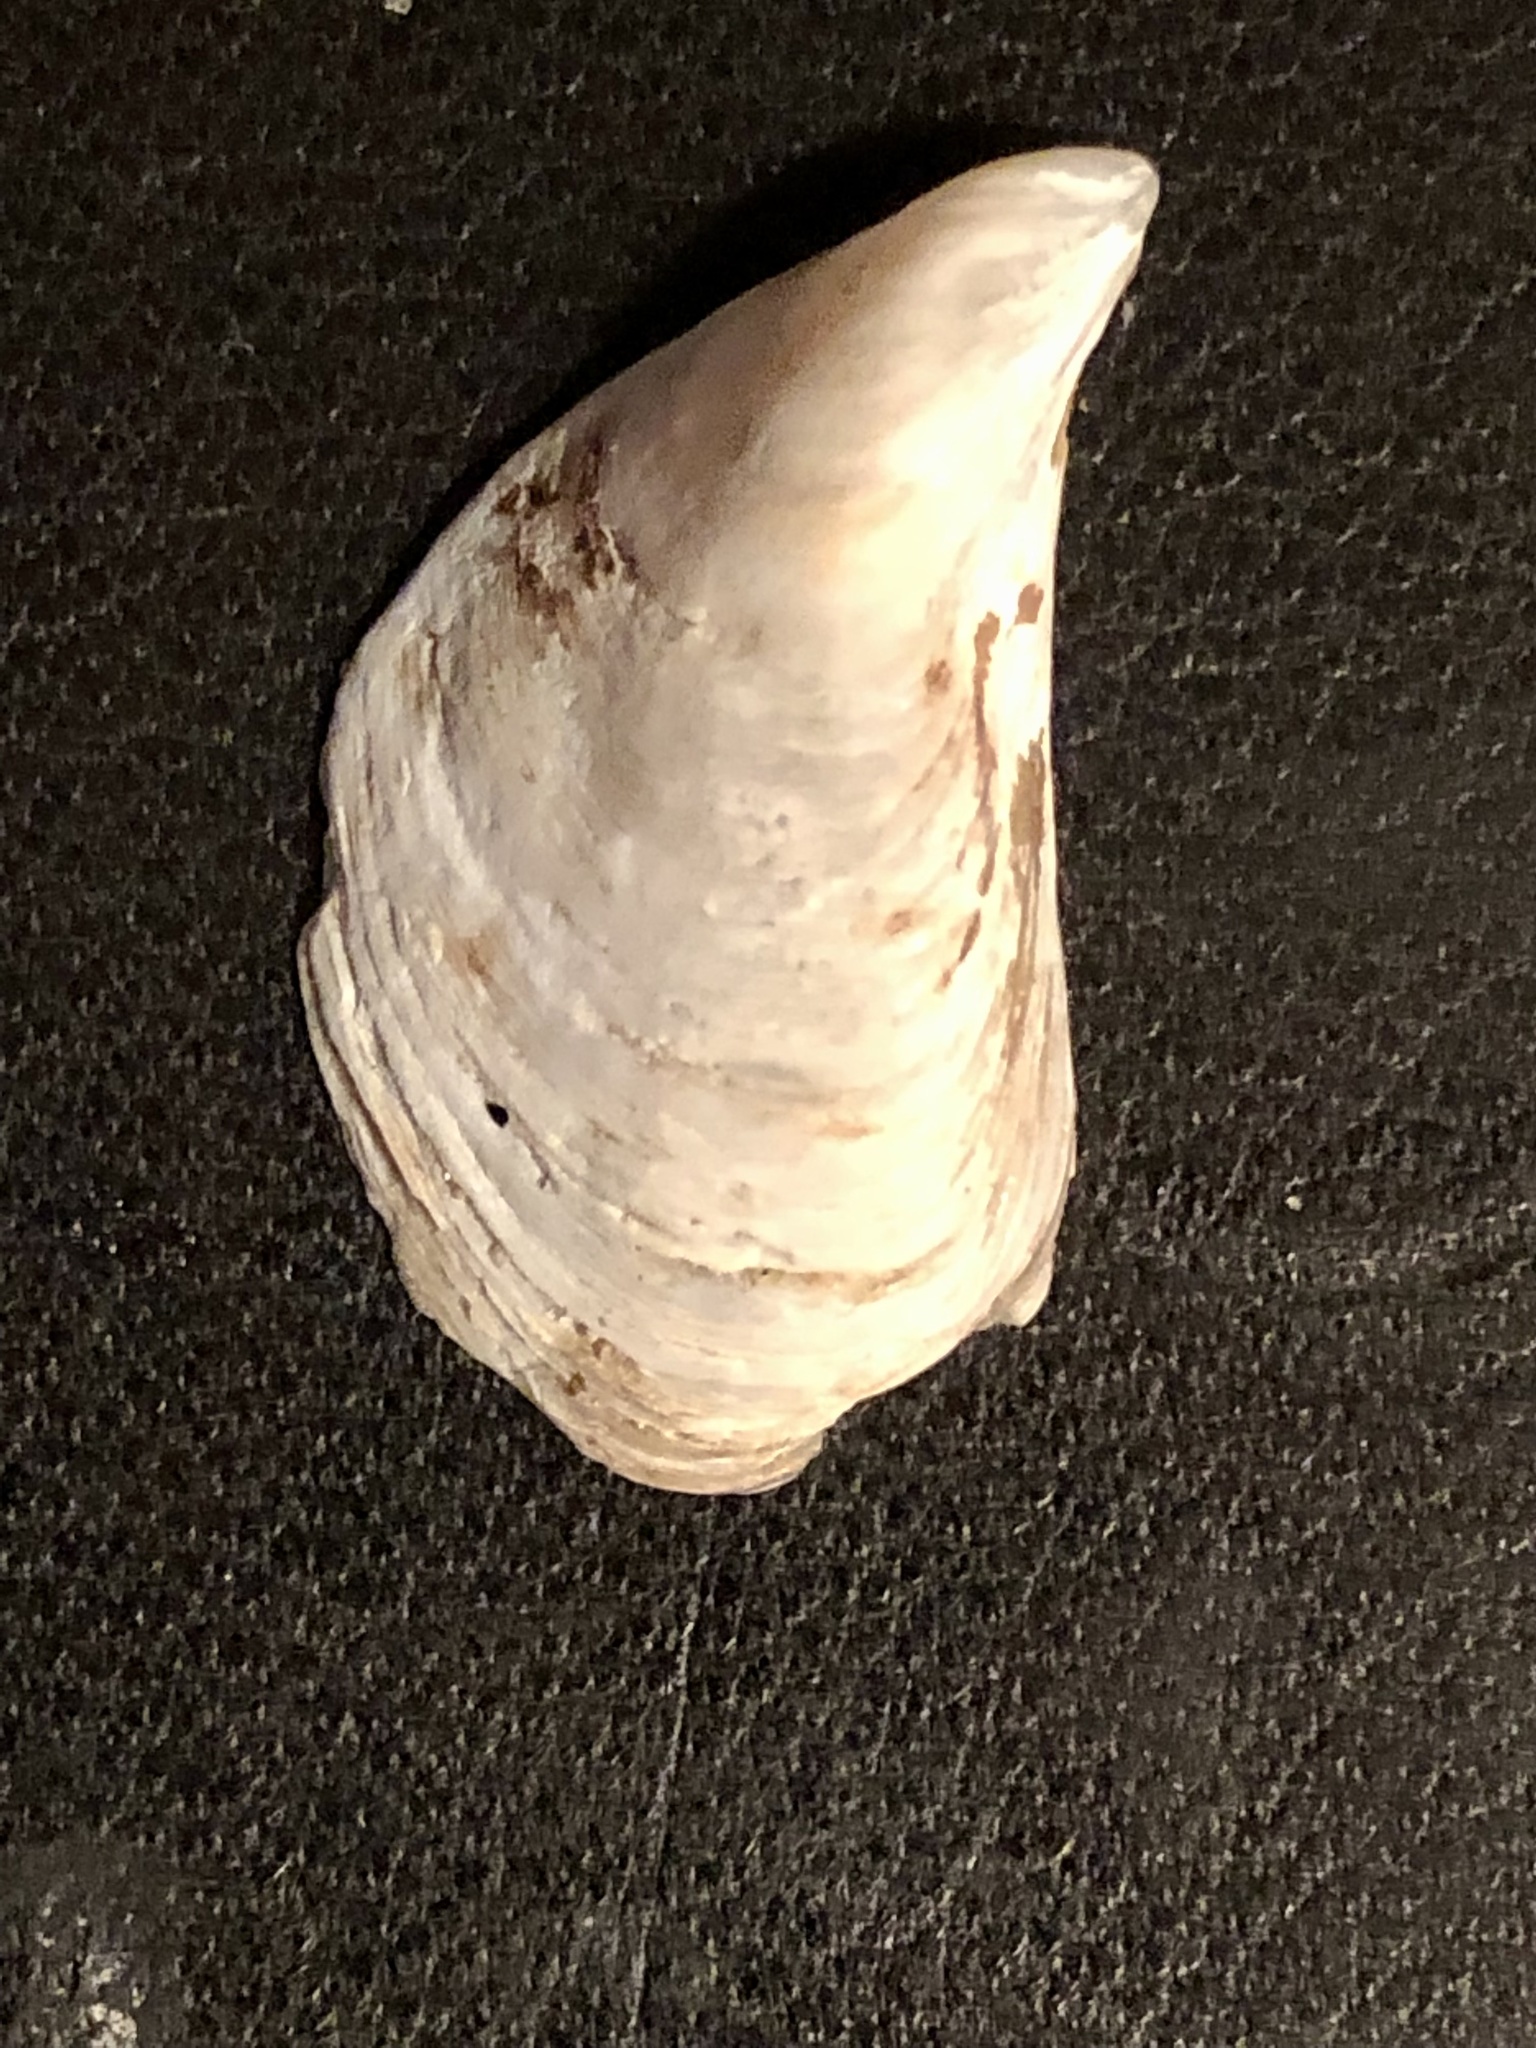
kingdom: Animalia
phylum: Mollusca
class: Bivalvia
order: Myida
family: Dreissenidae
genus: Dreissena
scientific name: Dreissena bugensis
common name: Quagga mussel
